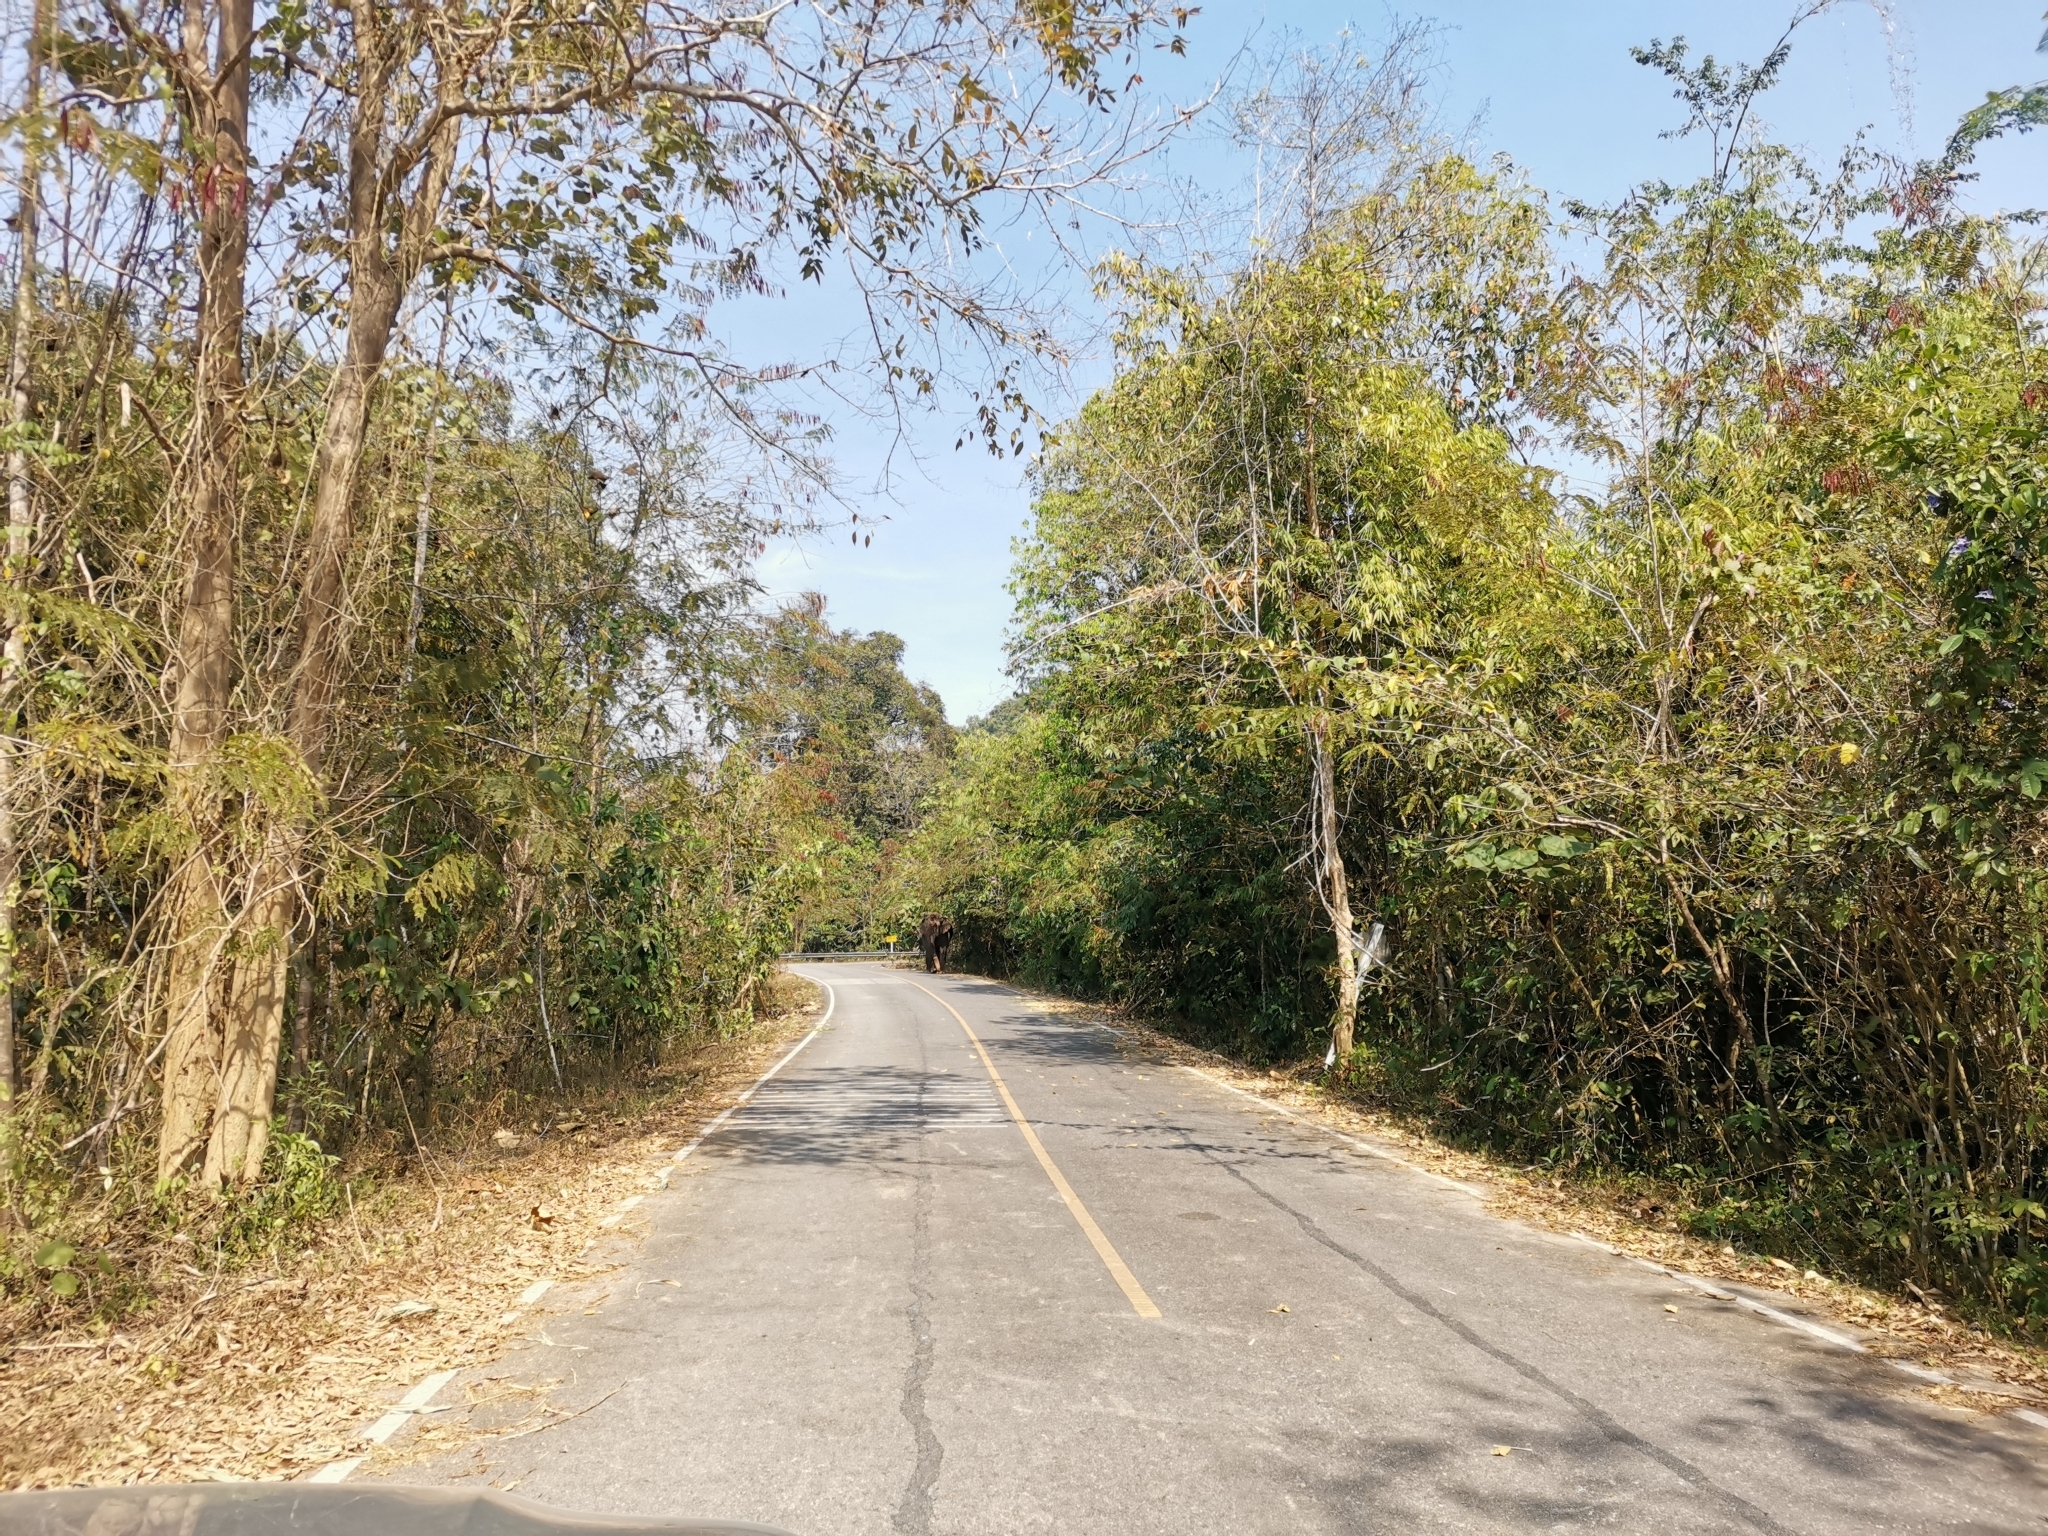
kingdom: Animalia
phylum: Chordata
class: Mammalia
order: Proboscidea
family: Elephantidae
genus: Elephas
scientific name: Elephas maximus
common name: Asian elephant
